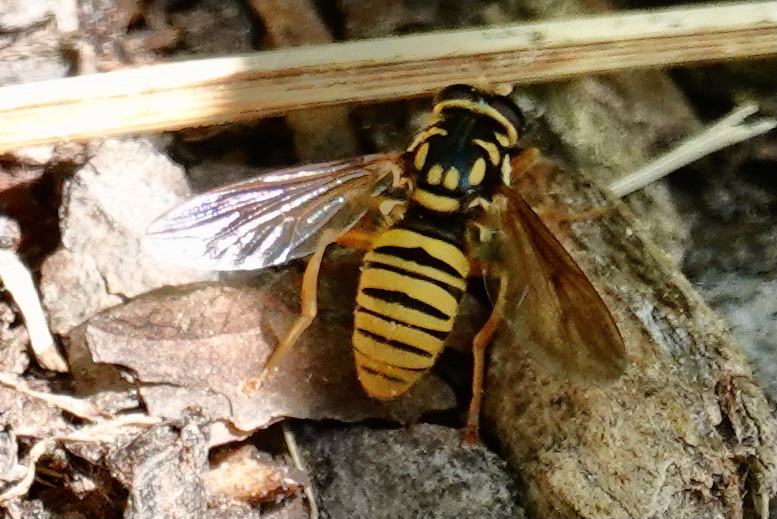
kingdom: Animalia
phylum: Arthropoda
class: Insecta
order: Diptera
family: Syrphidae
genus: Temnostoma
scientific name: Temnostoma daochum
